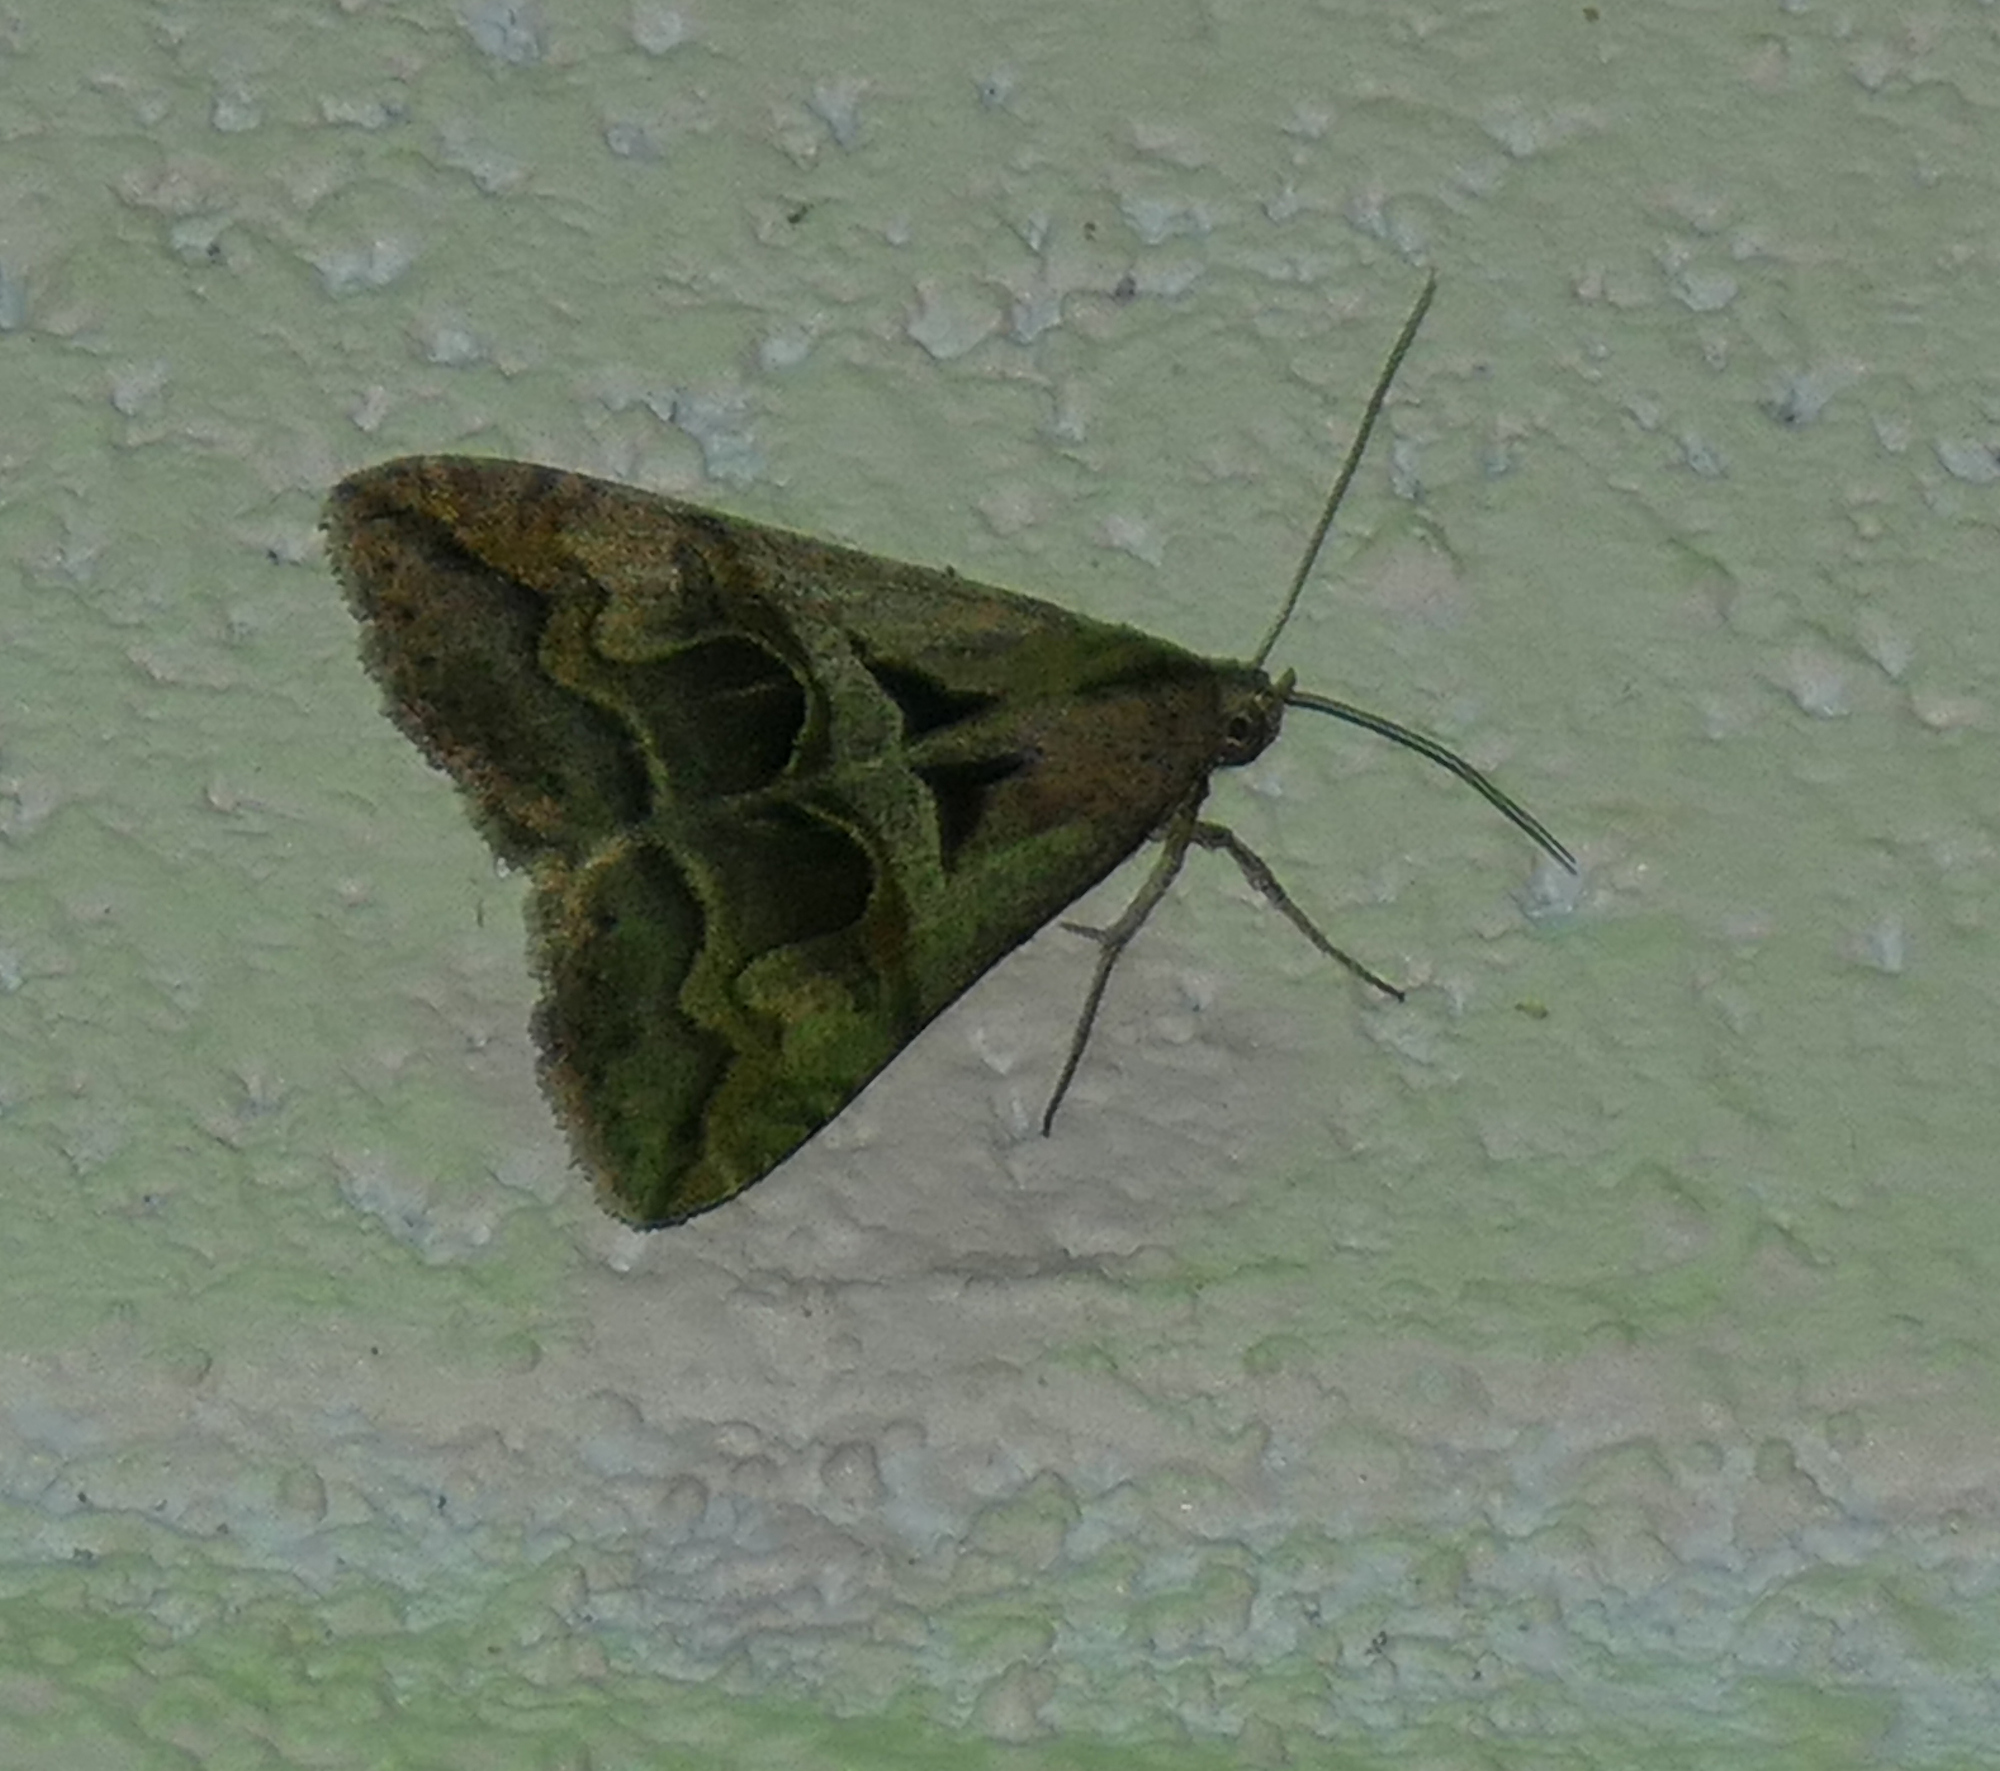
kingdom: Animalia
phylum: Arthropoda
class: Insecta
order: Lepidoptera
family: Erebidae
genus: Melipotis
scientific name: Melipotis cellaris
